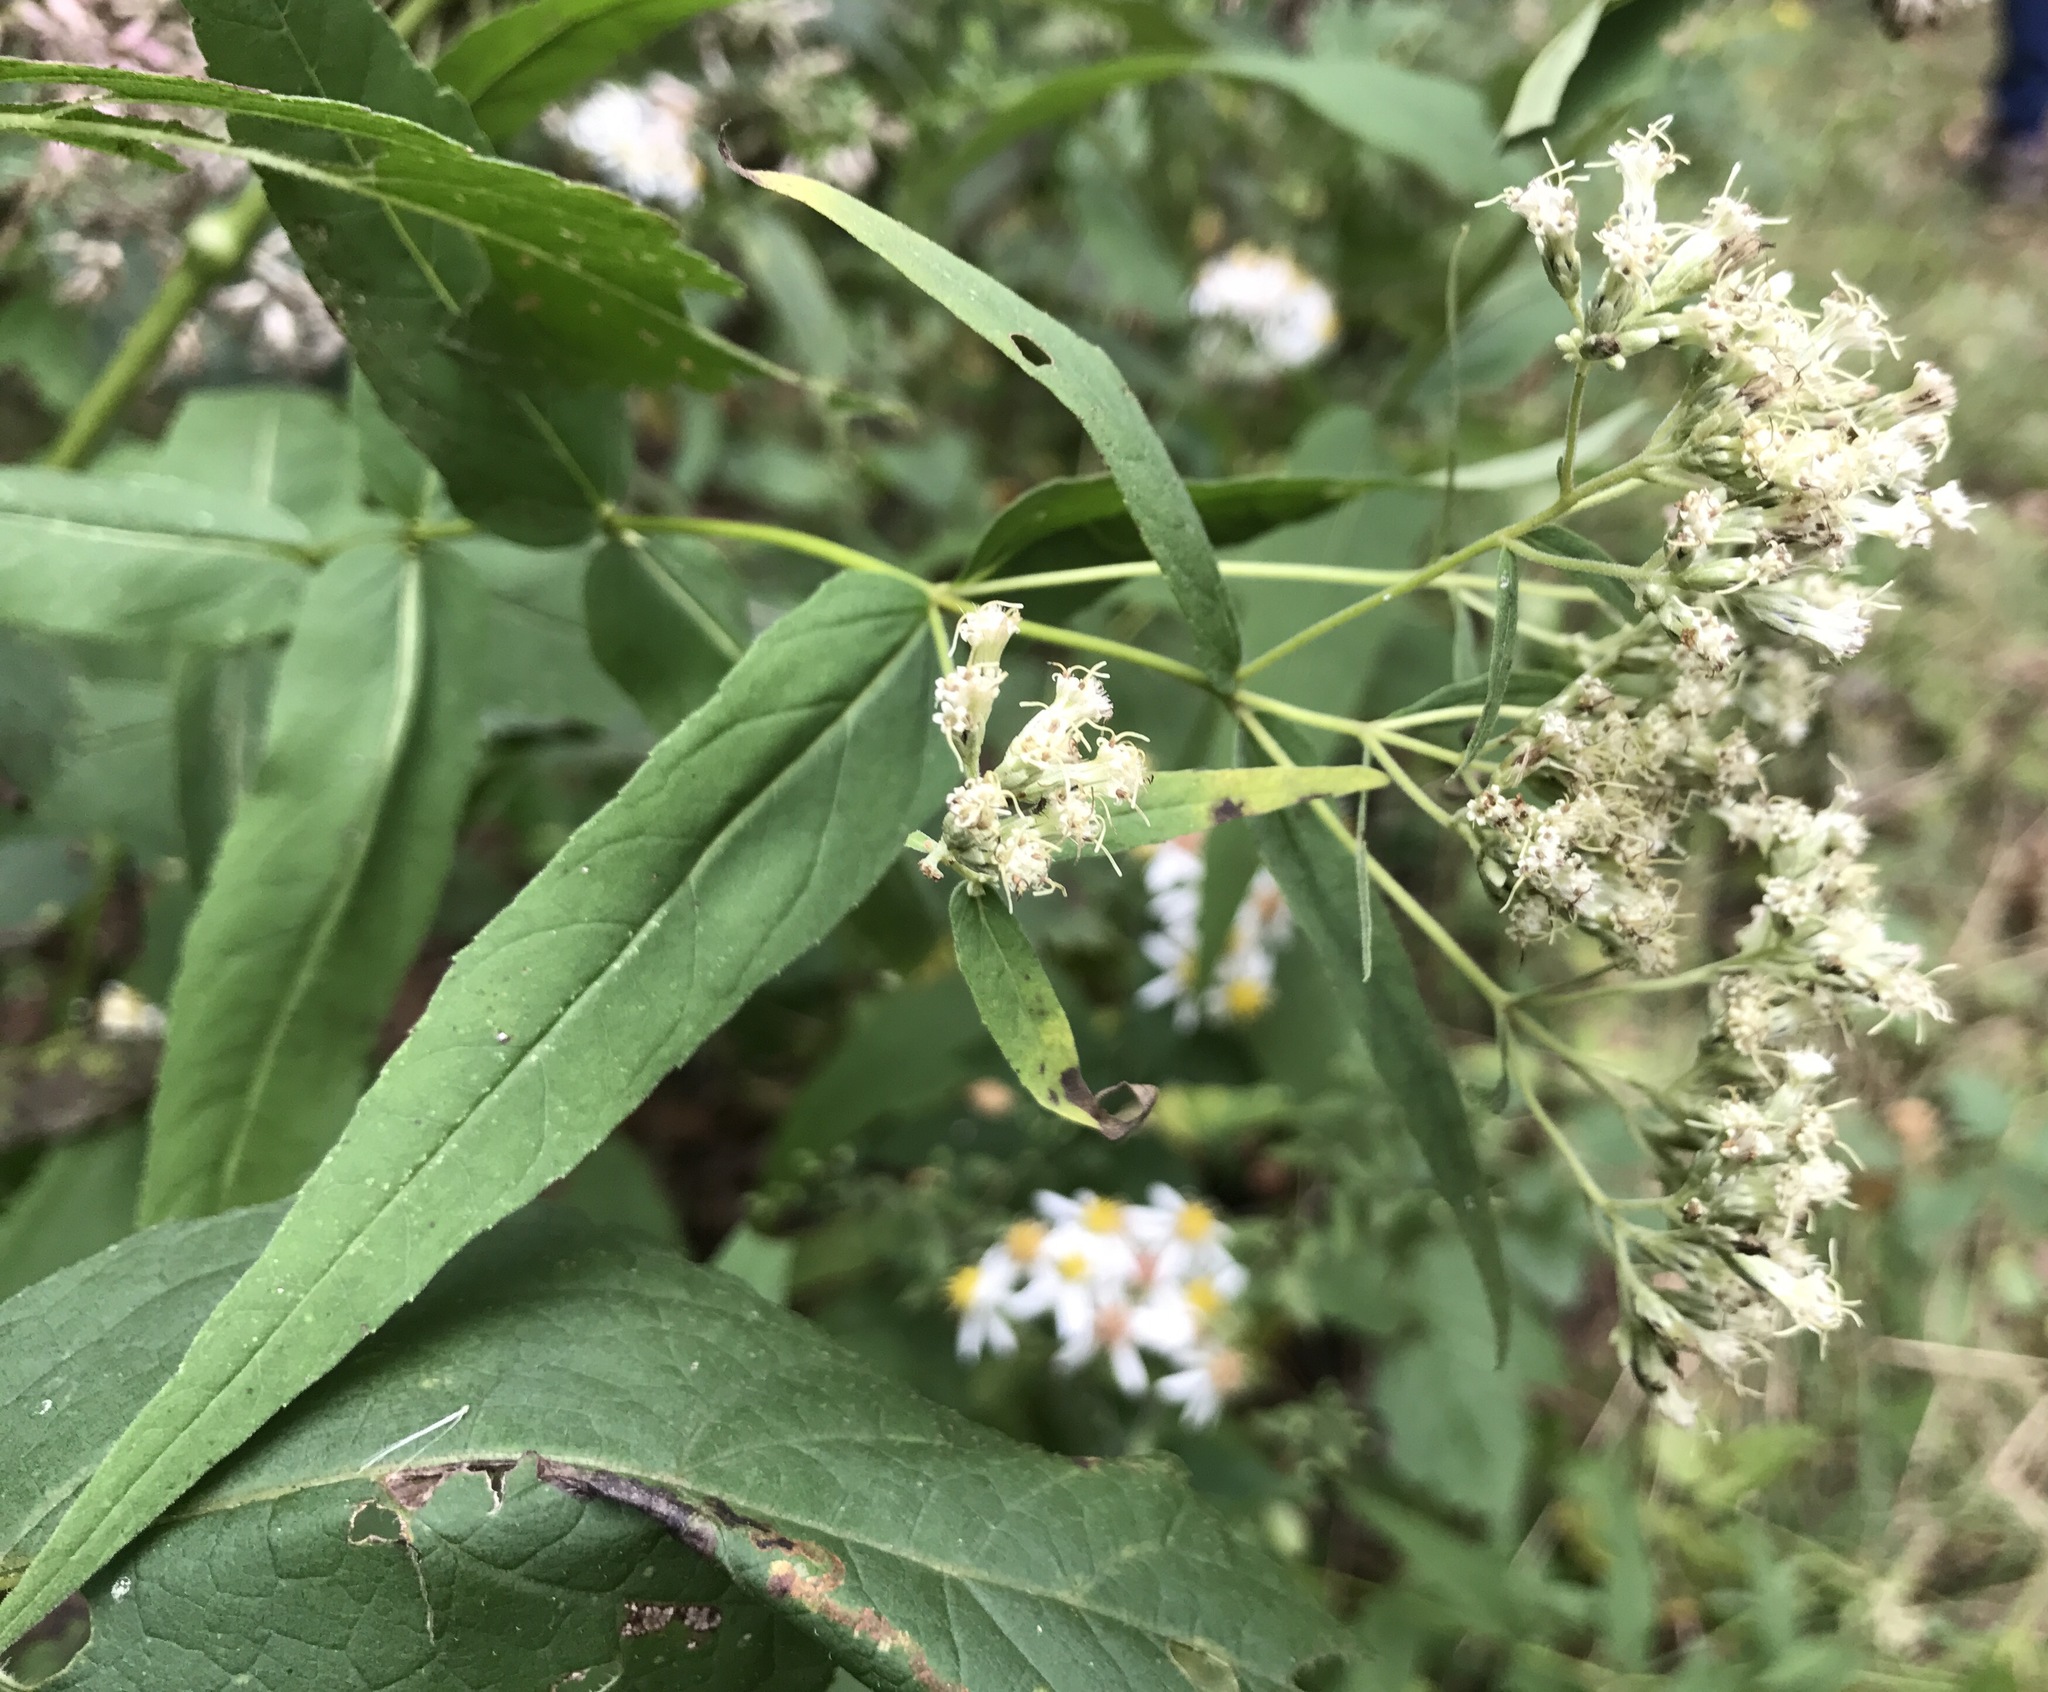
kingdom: Plantae
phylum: Tracheophyta
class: Magnoliopsida
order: Asterales
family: Asteraceae
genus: Eupatorium
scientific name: Eupatorium sessilifolium
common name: Upland boneset
